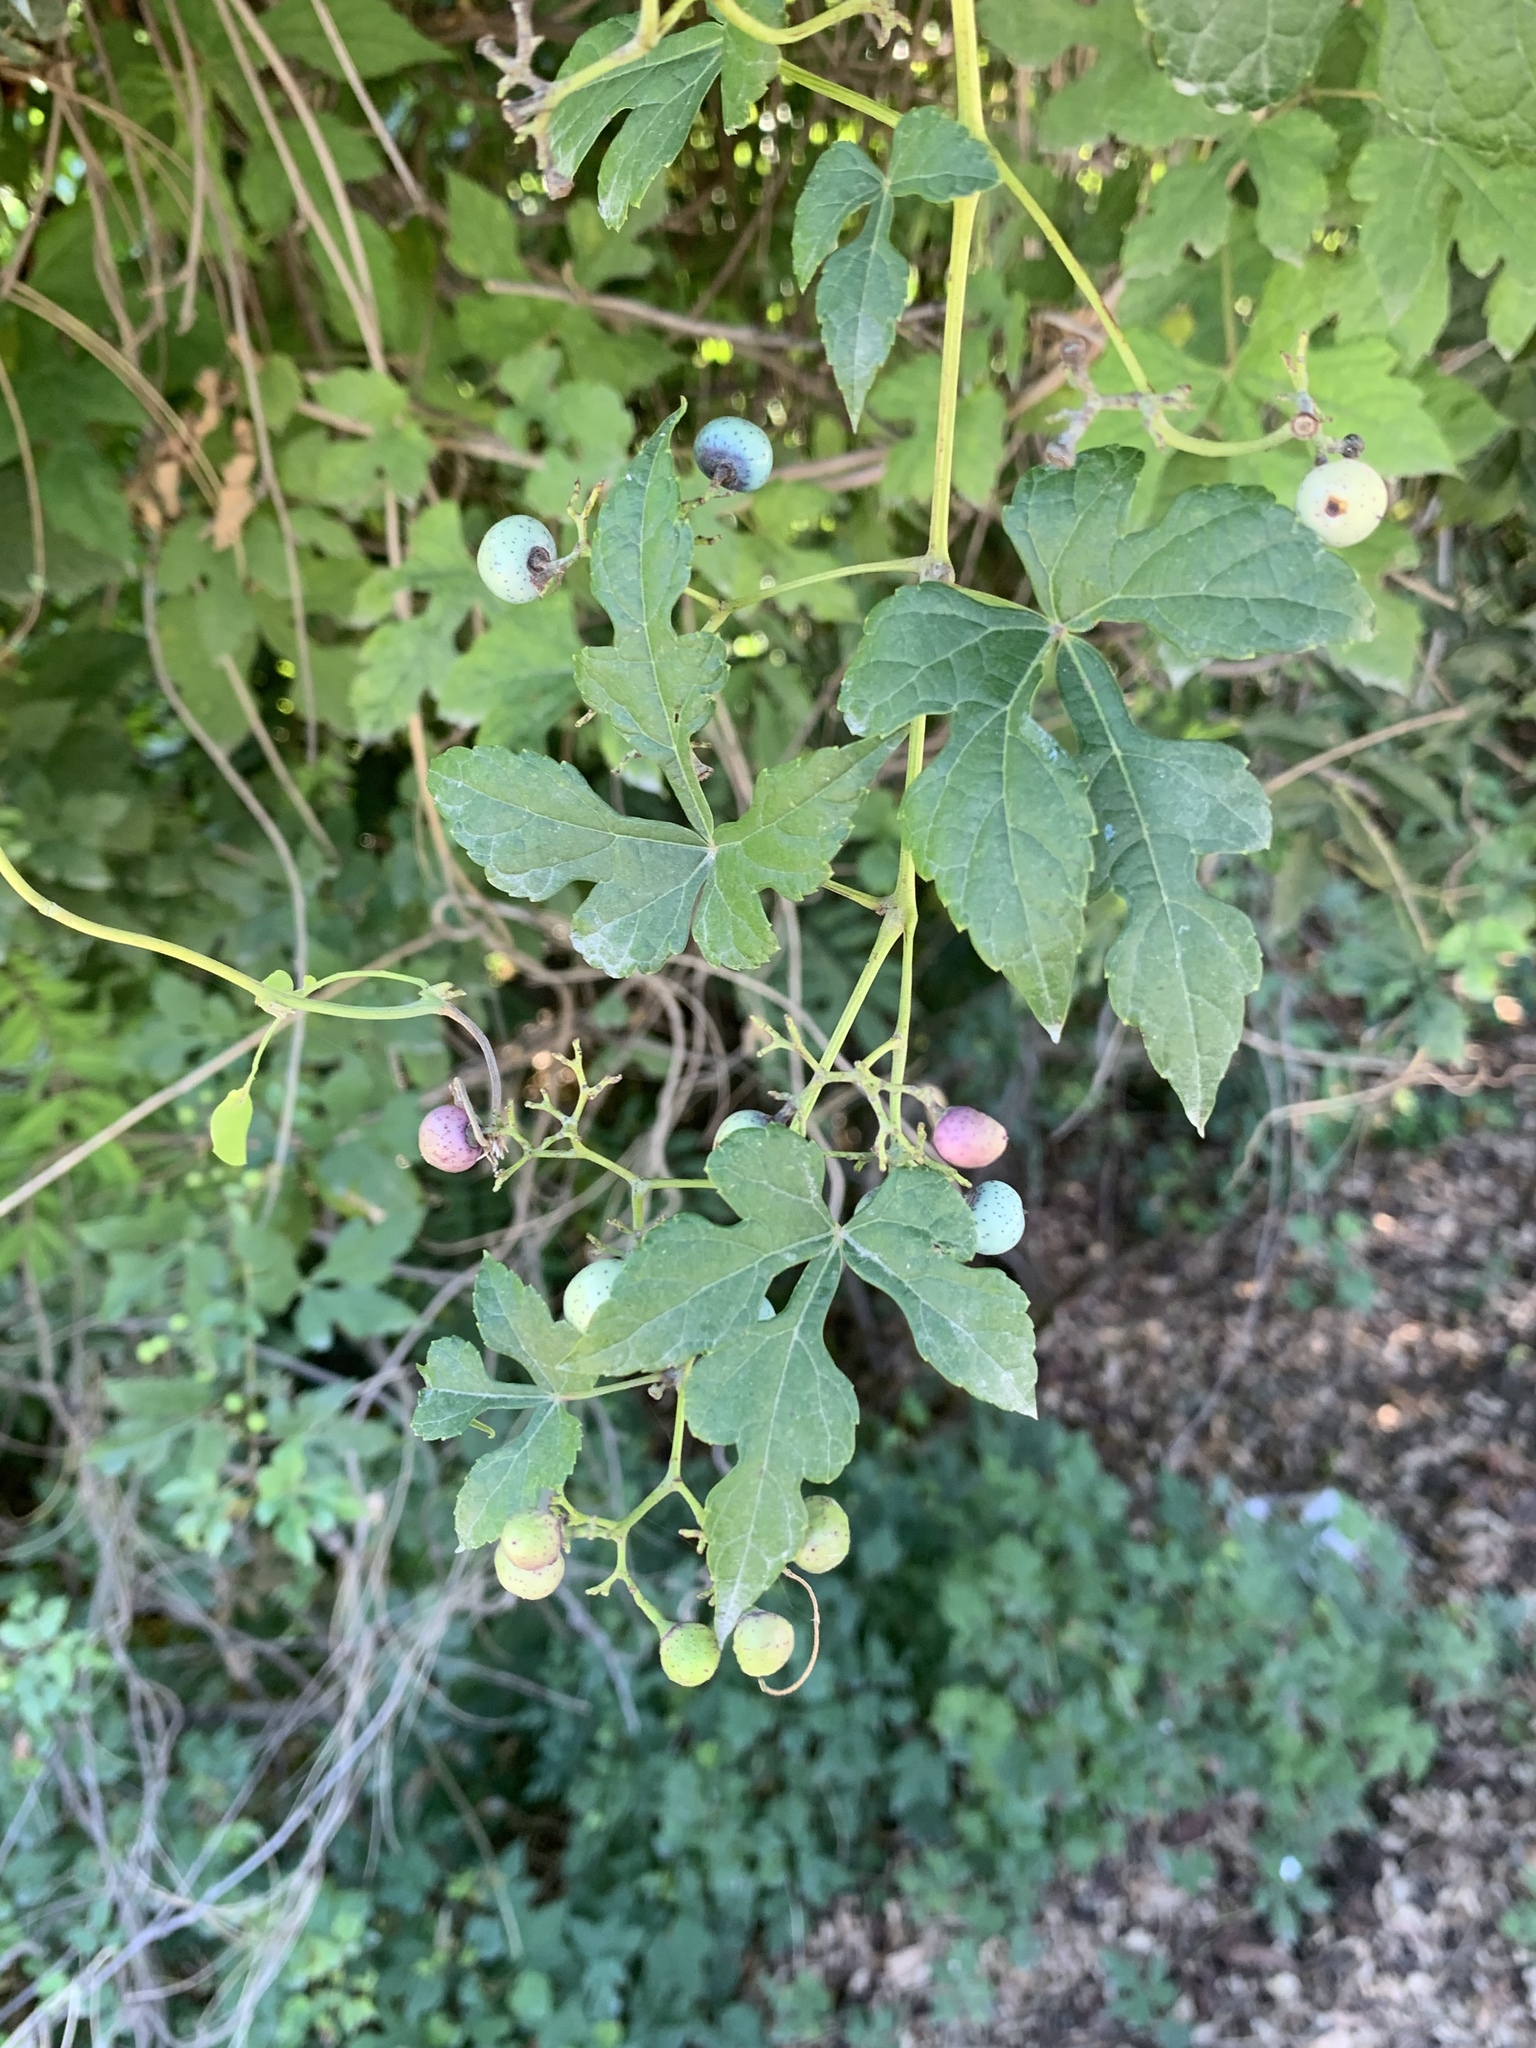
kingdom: Plantae
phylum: Tracheophyta
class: Magnoliopsida
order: Vitales
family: Vitaceae
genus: Ampelopsis
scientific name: Ampelopsis glandulosa
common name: Amur peppervine
